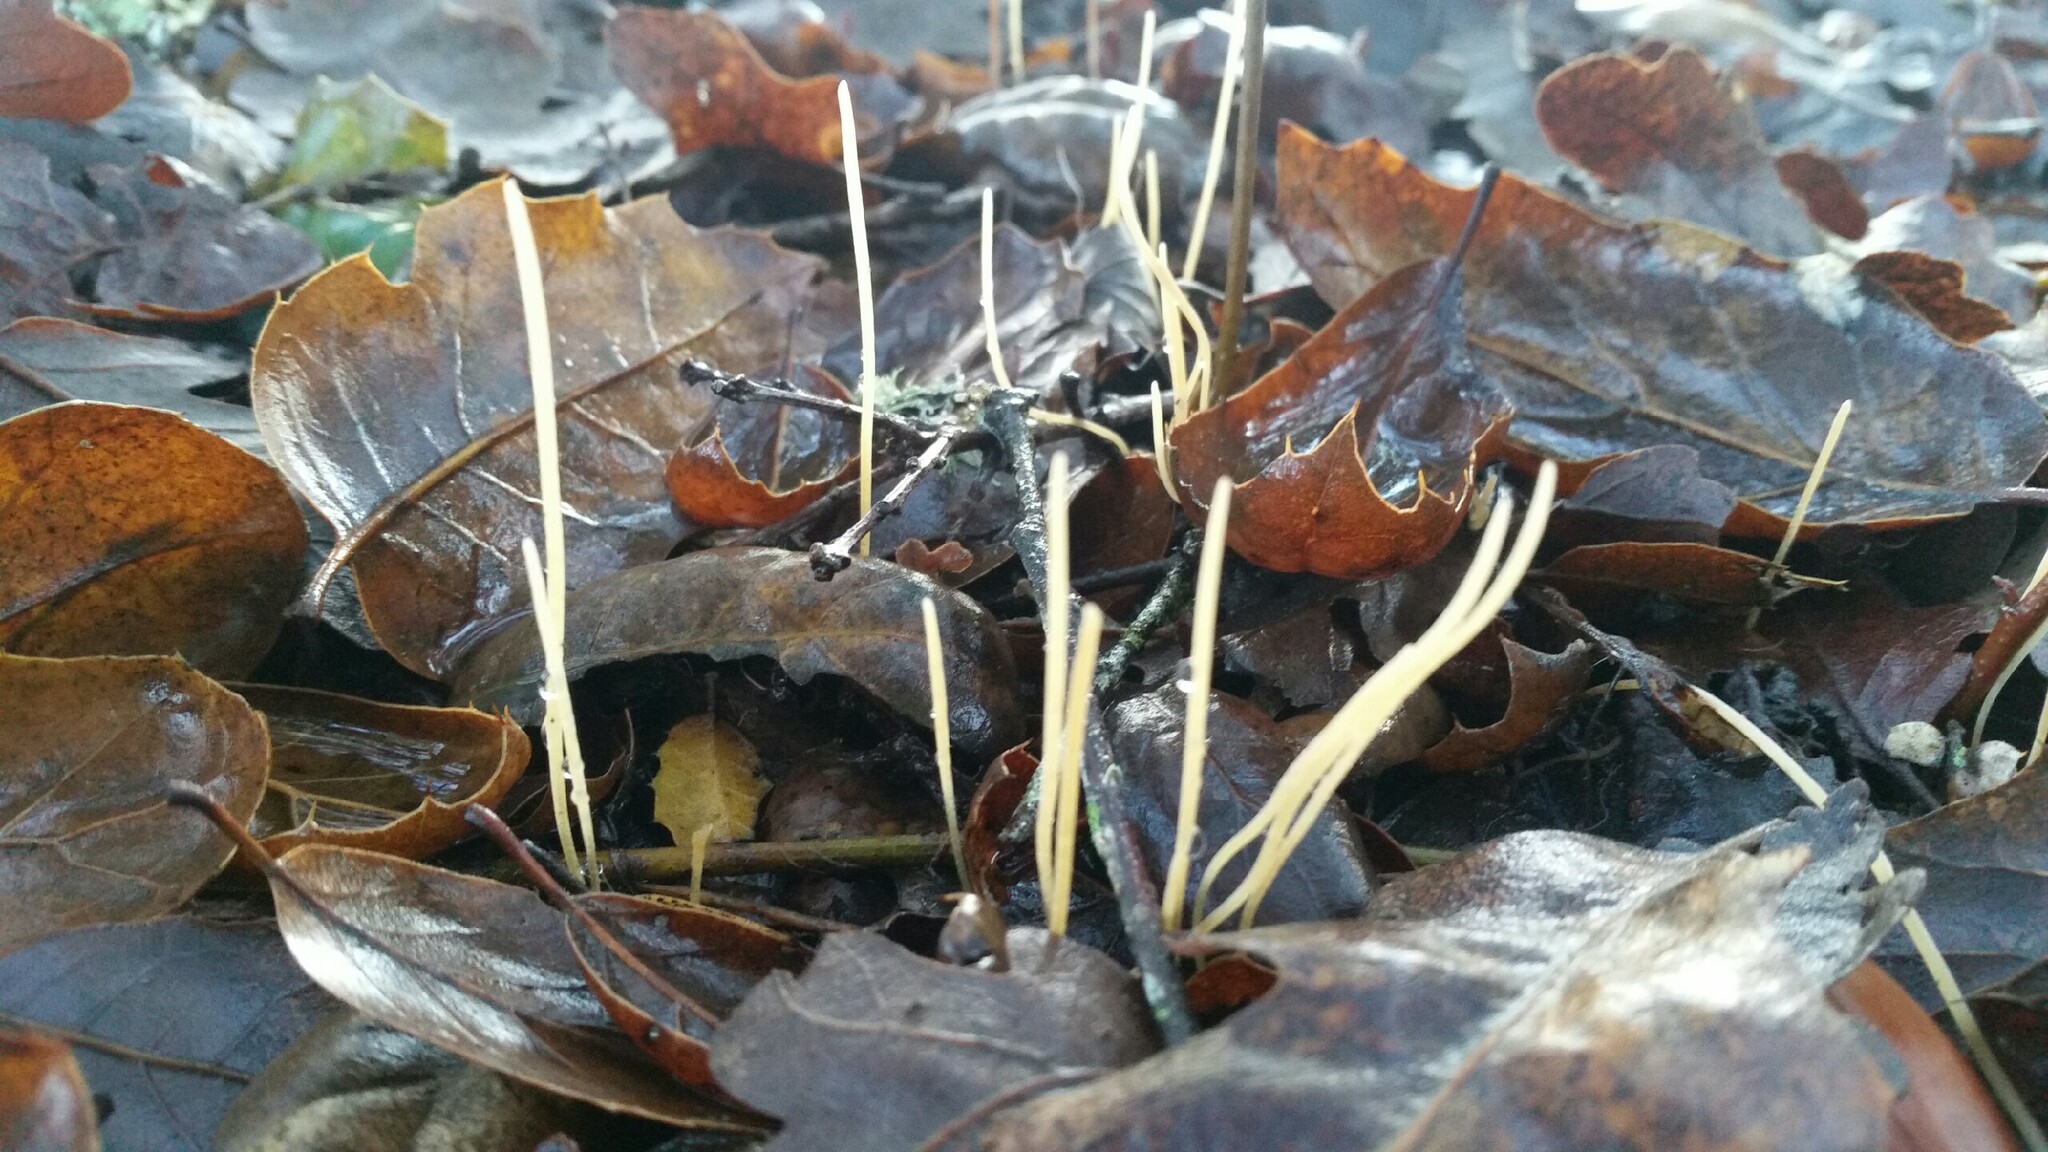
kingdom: Fungi
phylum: Basidiomycota
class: Agaricomycetes
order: Agaricales
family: Typhulaceae
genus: Typhula
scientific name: Typhula juncea
